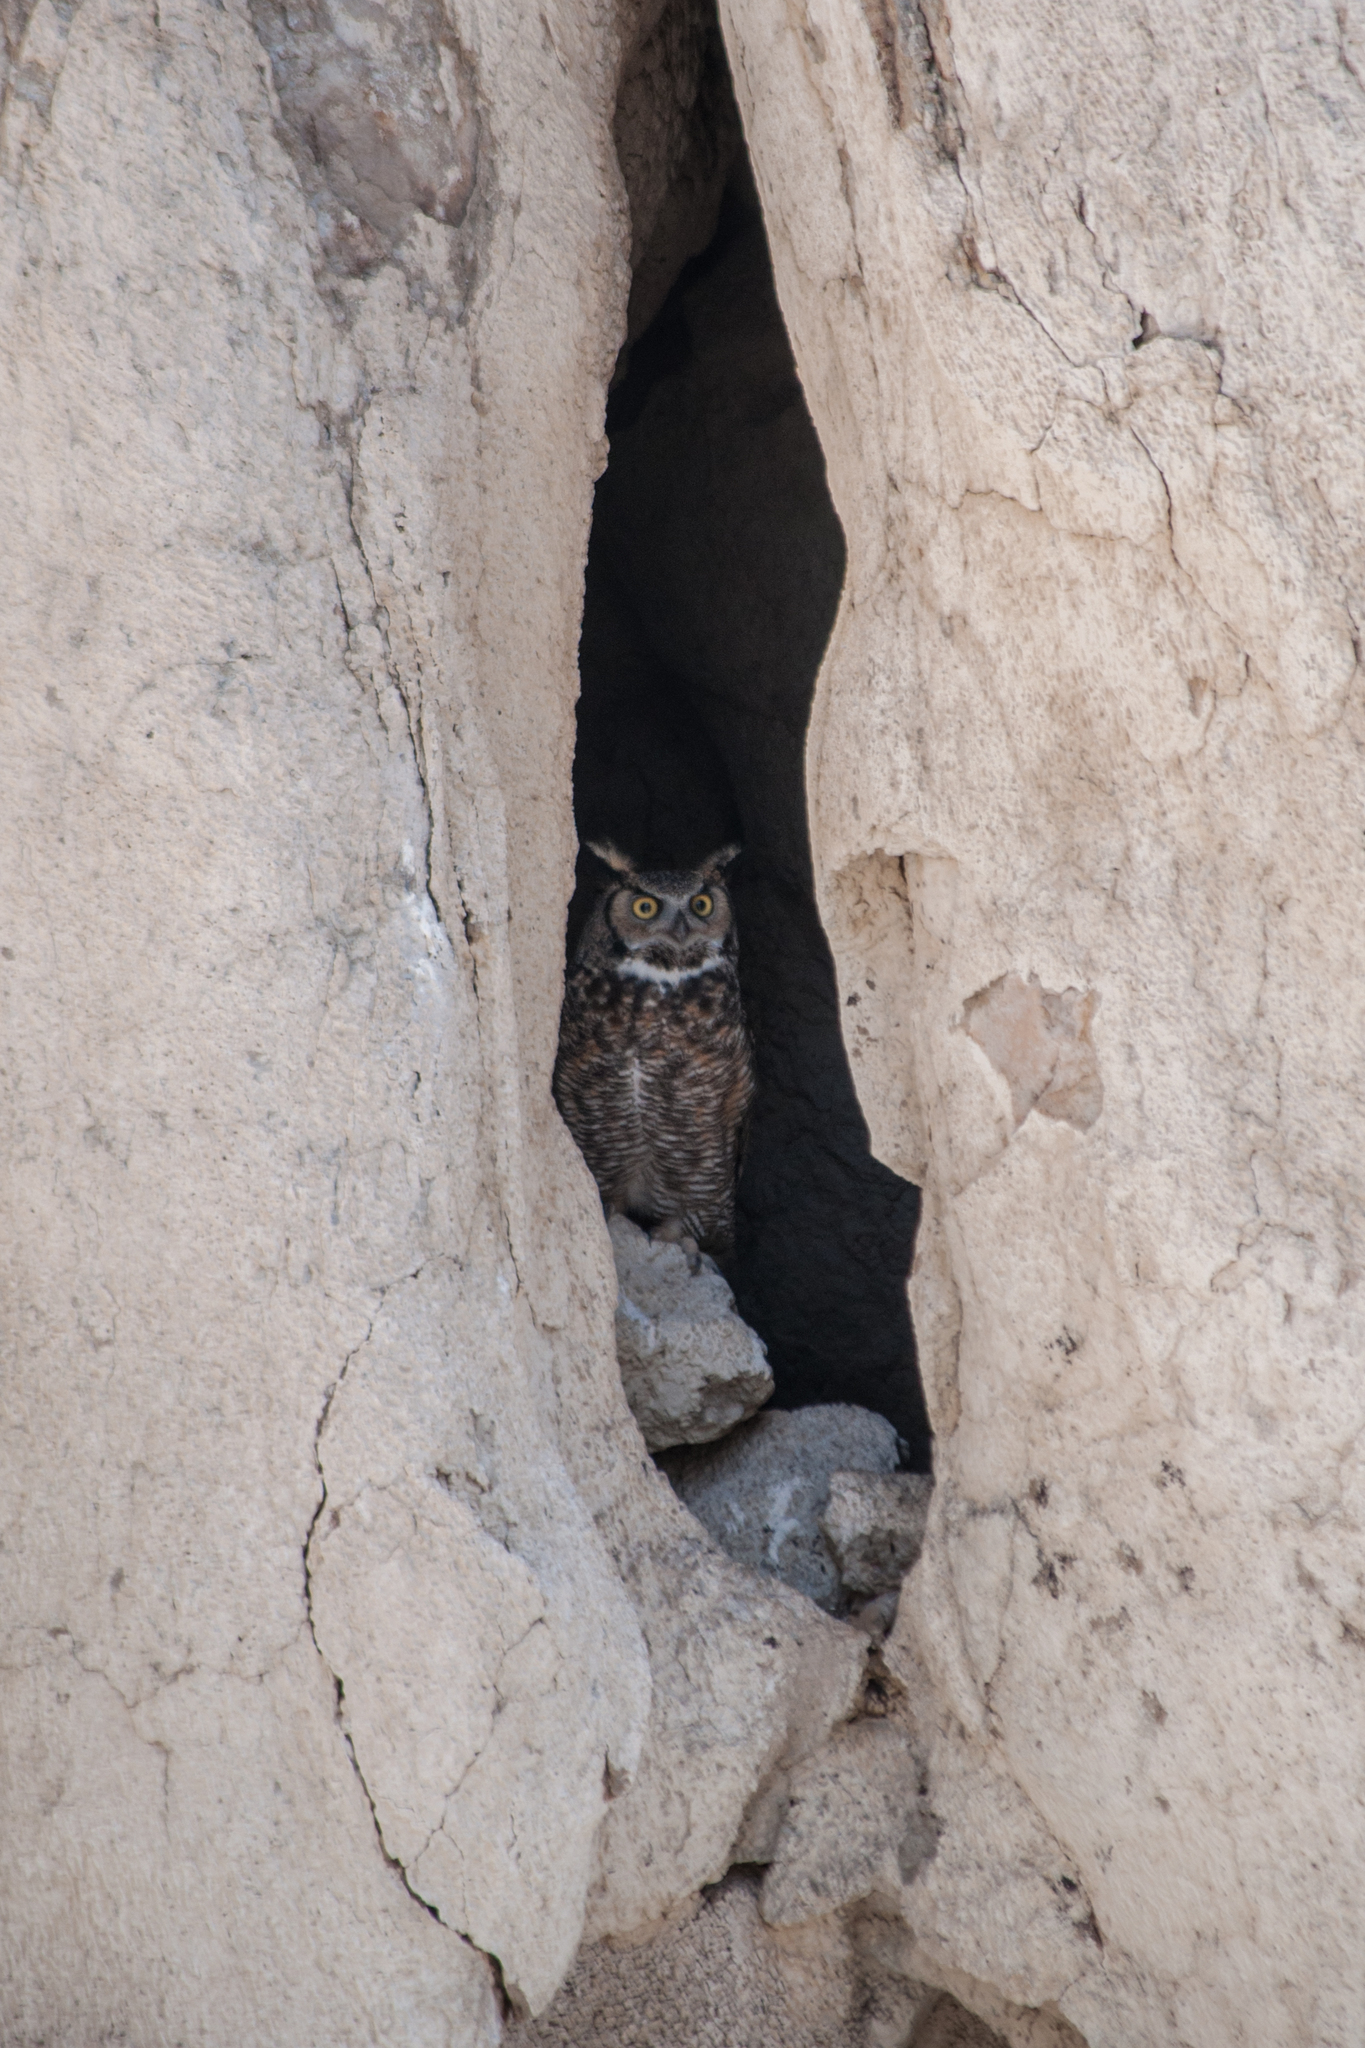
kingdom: Animalia
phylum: Chordata
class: Aves
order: Strigiformes
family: Strigidae
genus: Bubo
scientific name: Bubo virginianus
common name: Great horned owl
